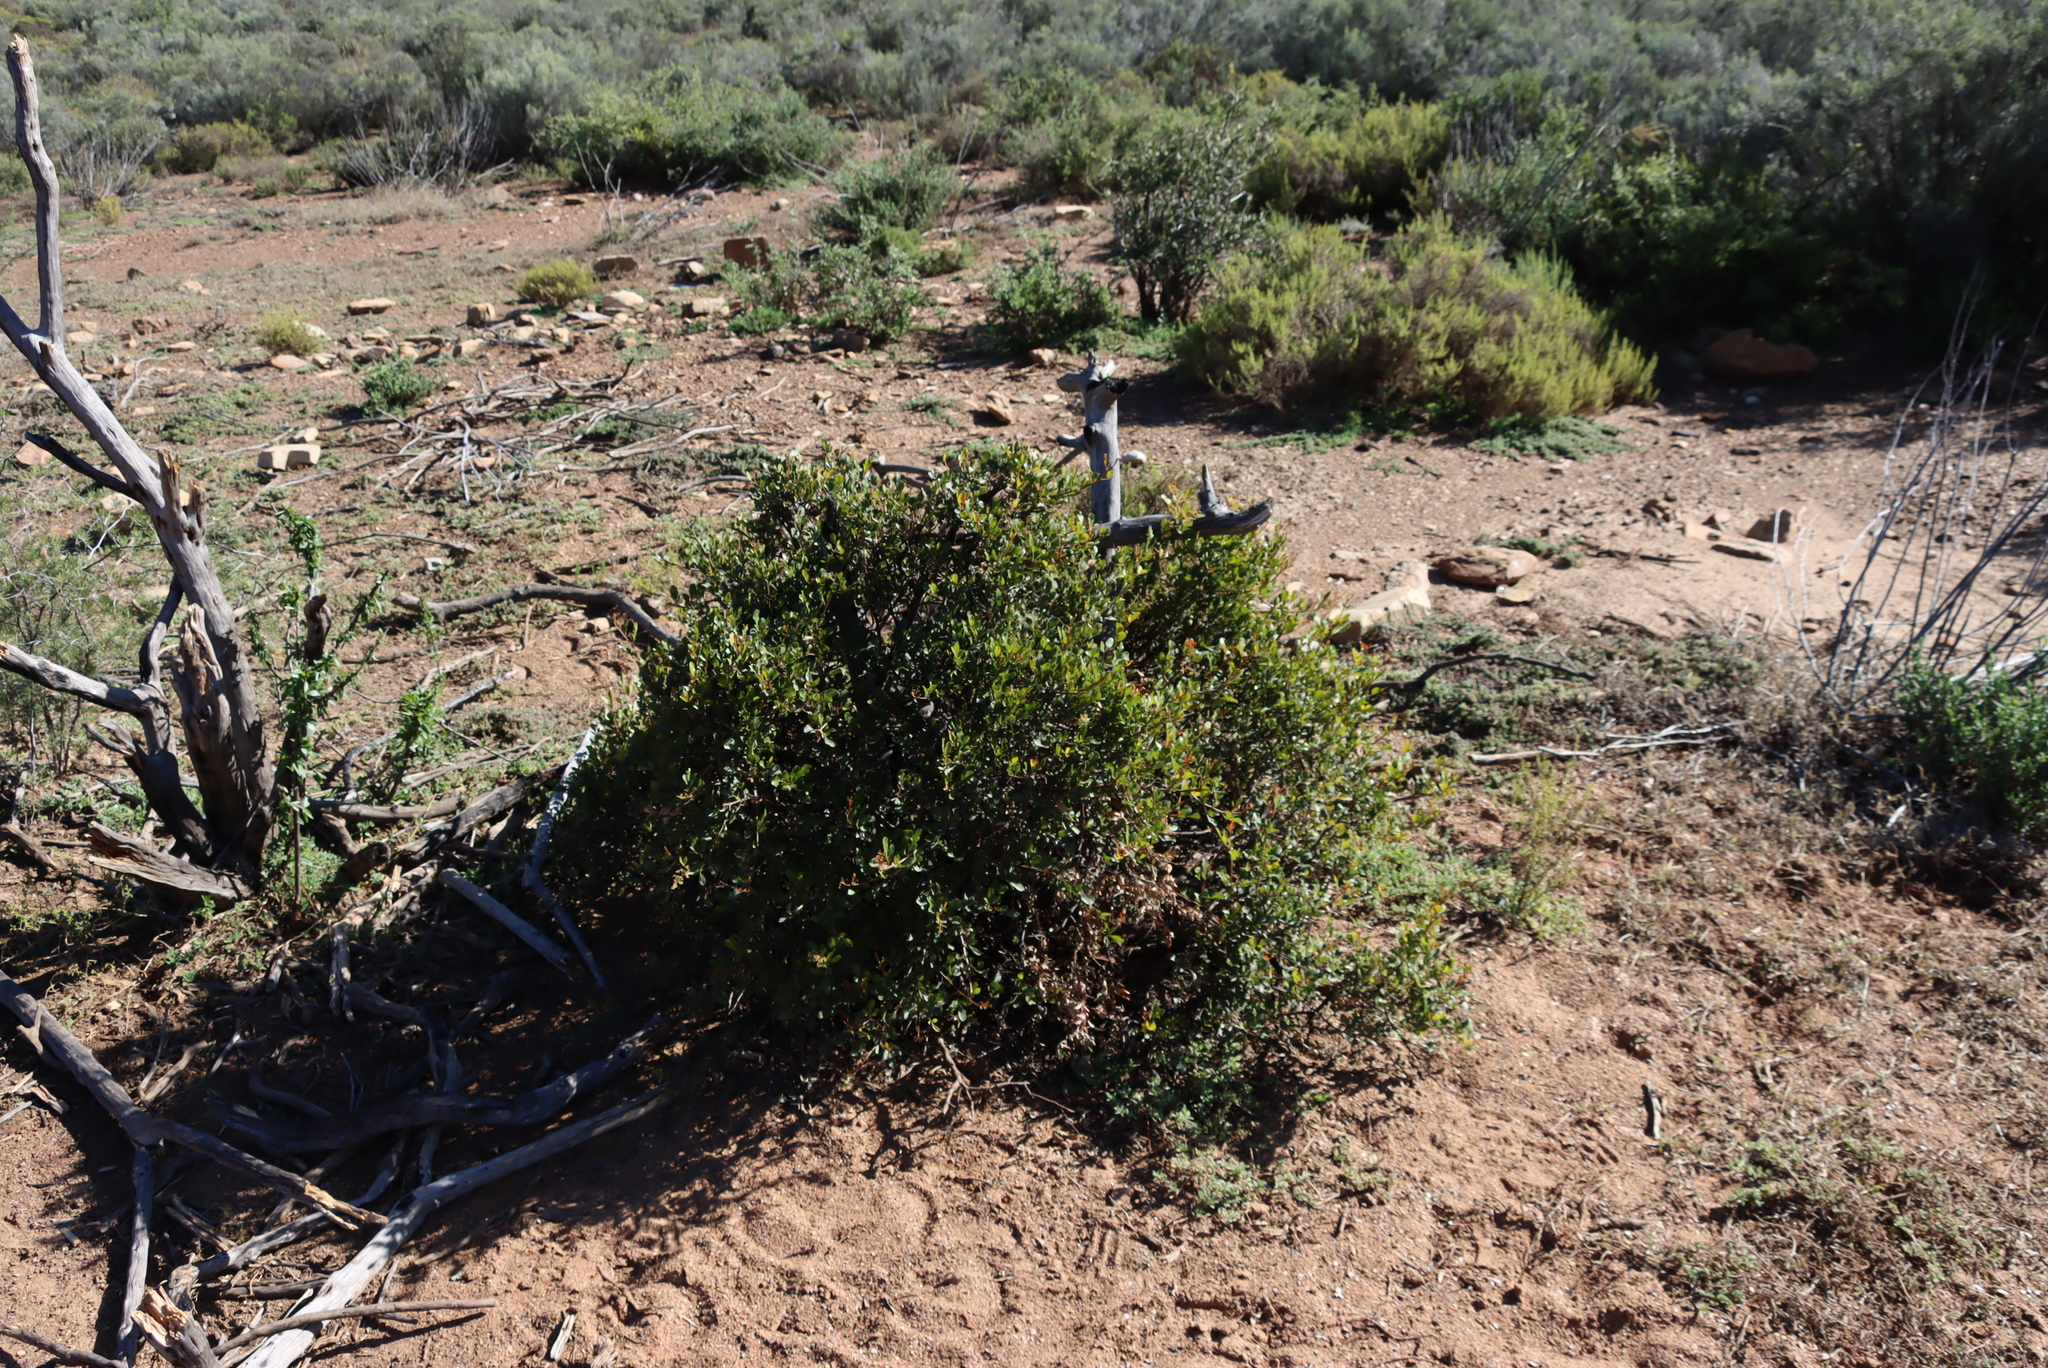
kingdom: Plantae
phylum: Tracheophyta
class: Magnoliopsida
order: Sapindales
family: Anacardiaceae
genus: Searsia
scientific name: Searsia pallens
